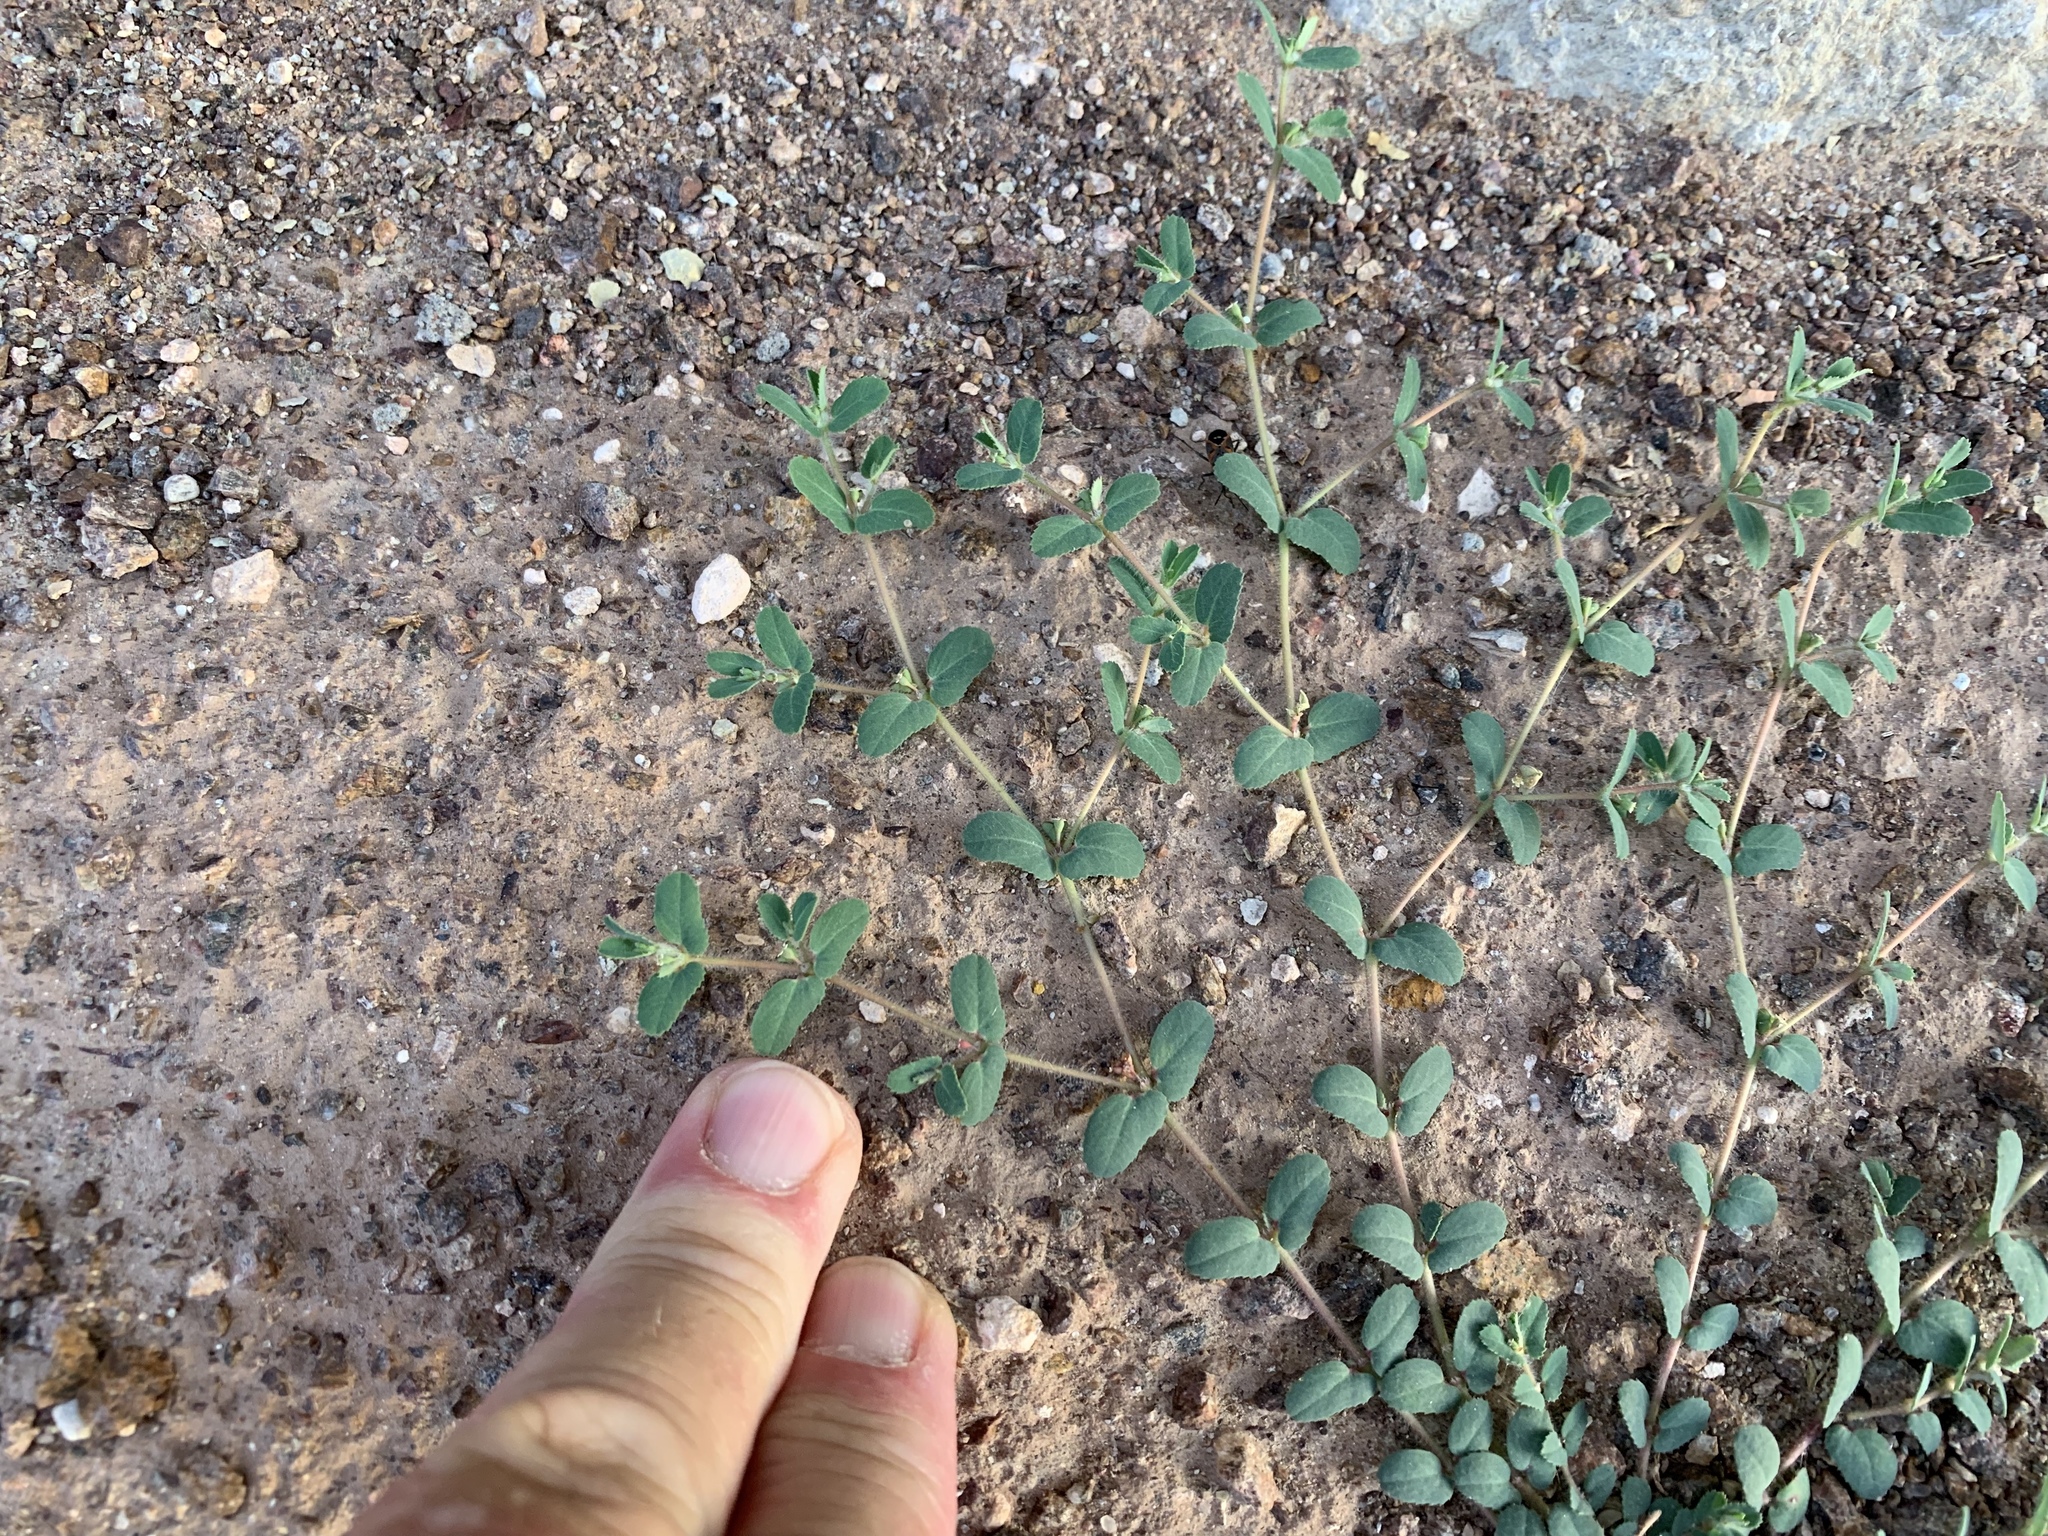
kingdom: Plantae
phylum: Tracheophyta
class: Magnoliopsida
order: Malpighiales
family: Euphorbiaceae
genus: Euphorbia
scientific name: Euphorbia serrula
